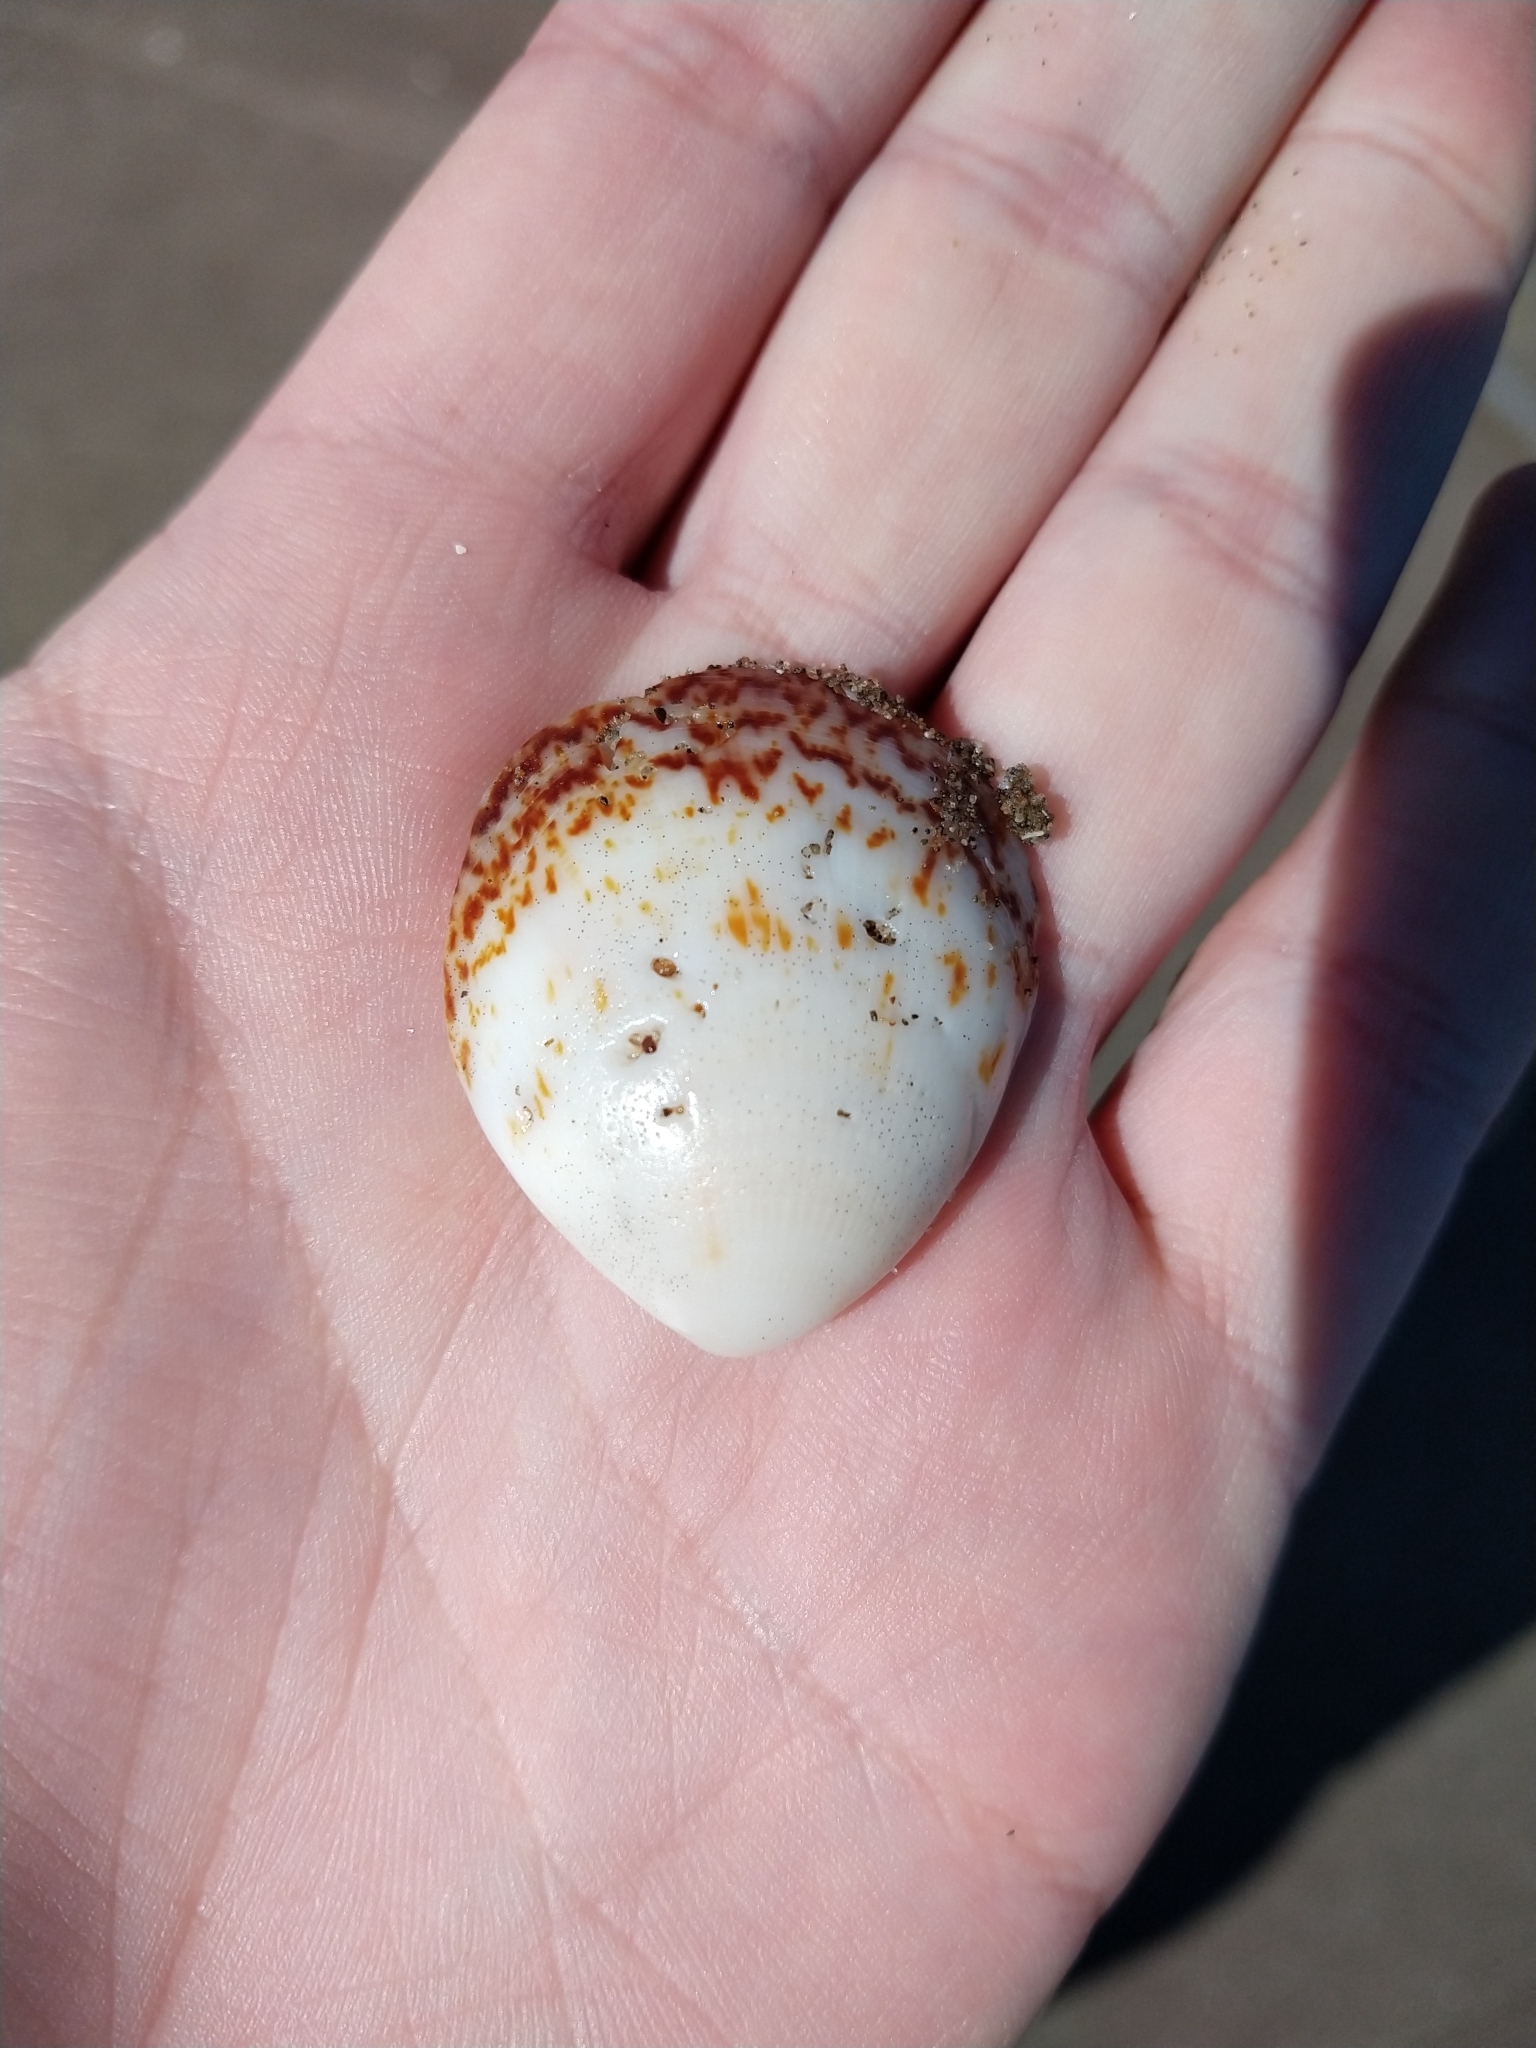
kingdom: Animalia
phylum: Mollusca
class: Bivalvia
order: Arcida
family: Glycymerididae
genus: Glycymeris
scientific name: Glycymeris longior
